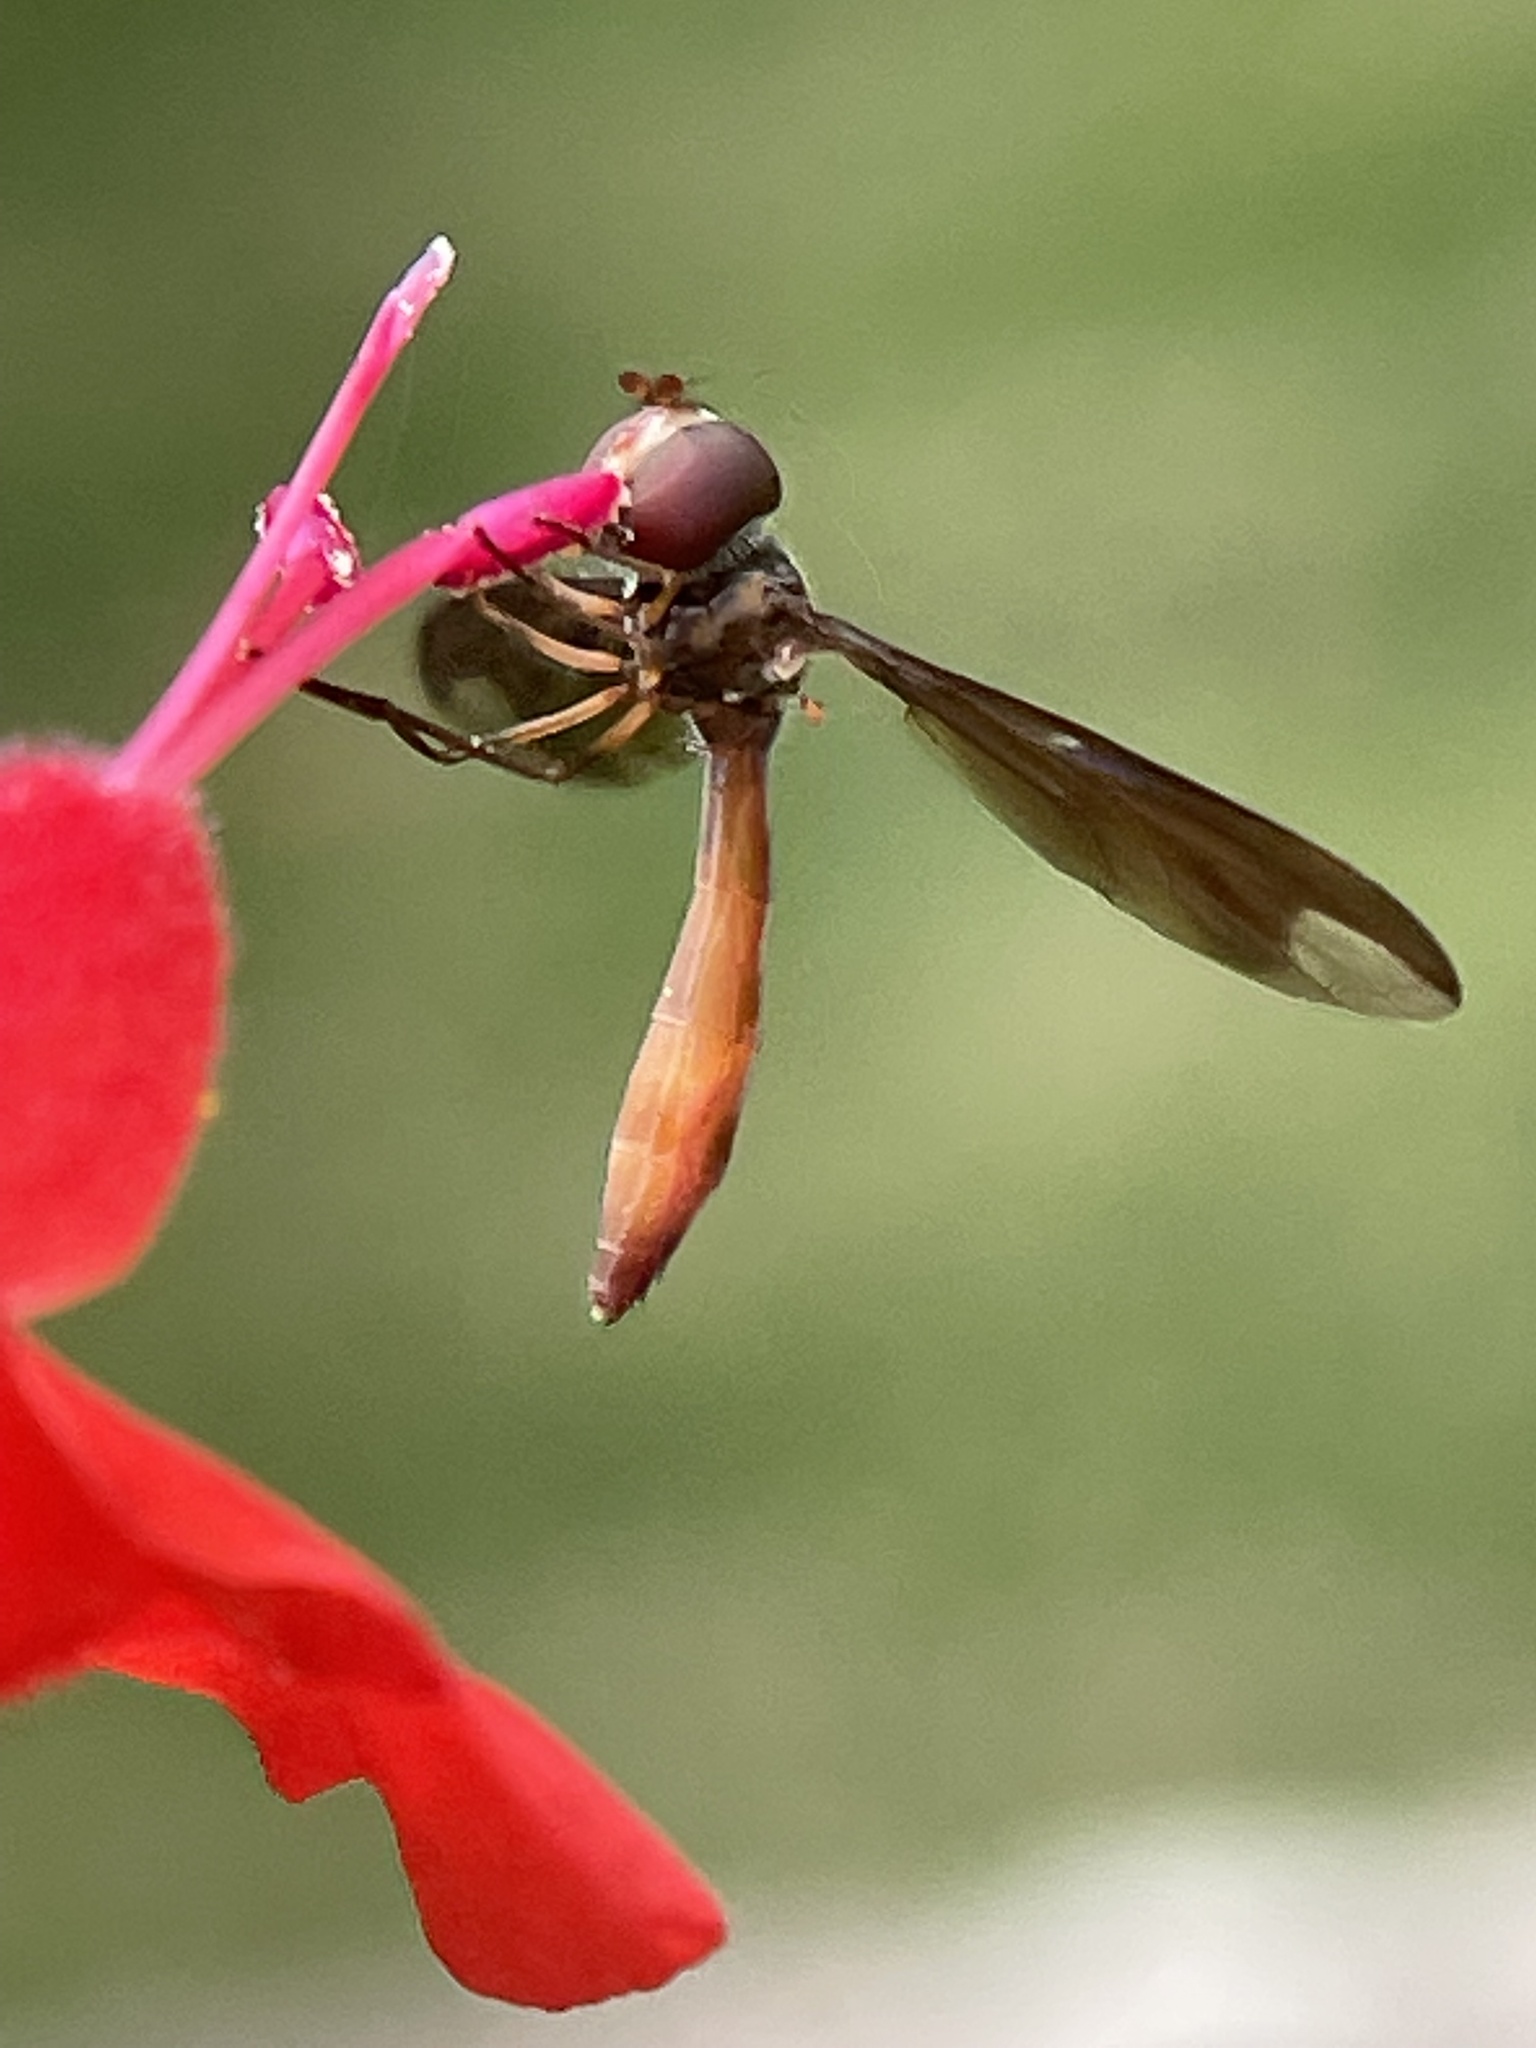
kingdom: Animalia
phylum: Arthropoda
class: Insecta
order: Diptera
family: Syrphidae
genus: Ocyptamus
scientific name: Ocyptamus fuscipennis
